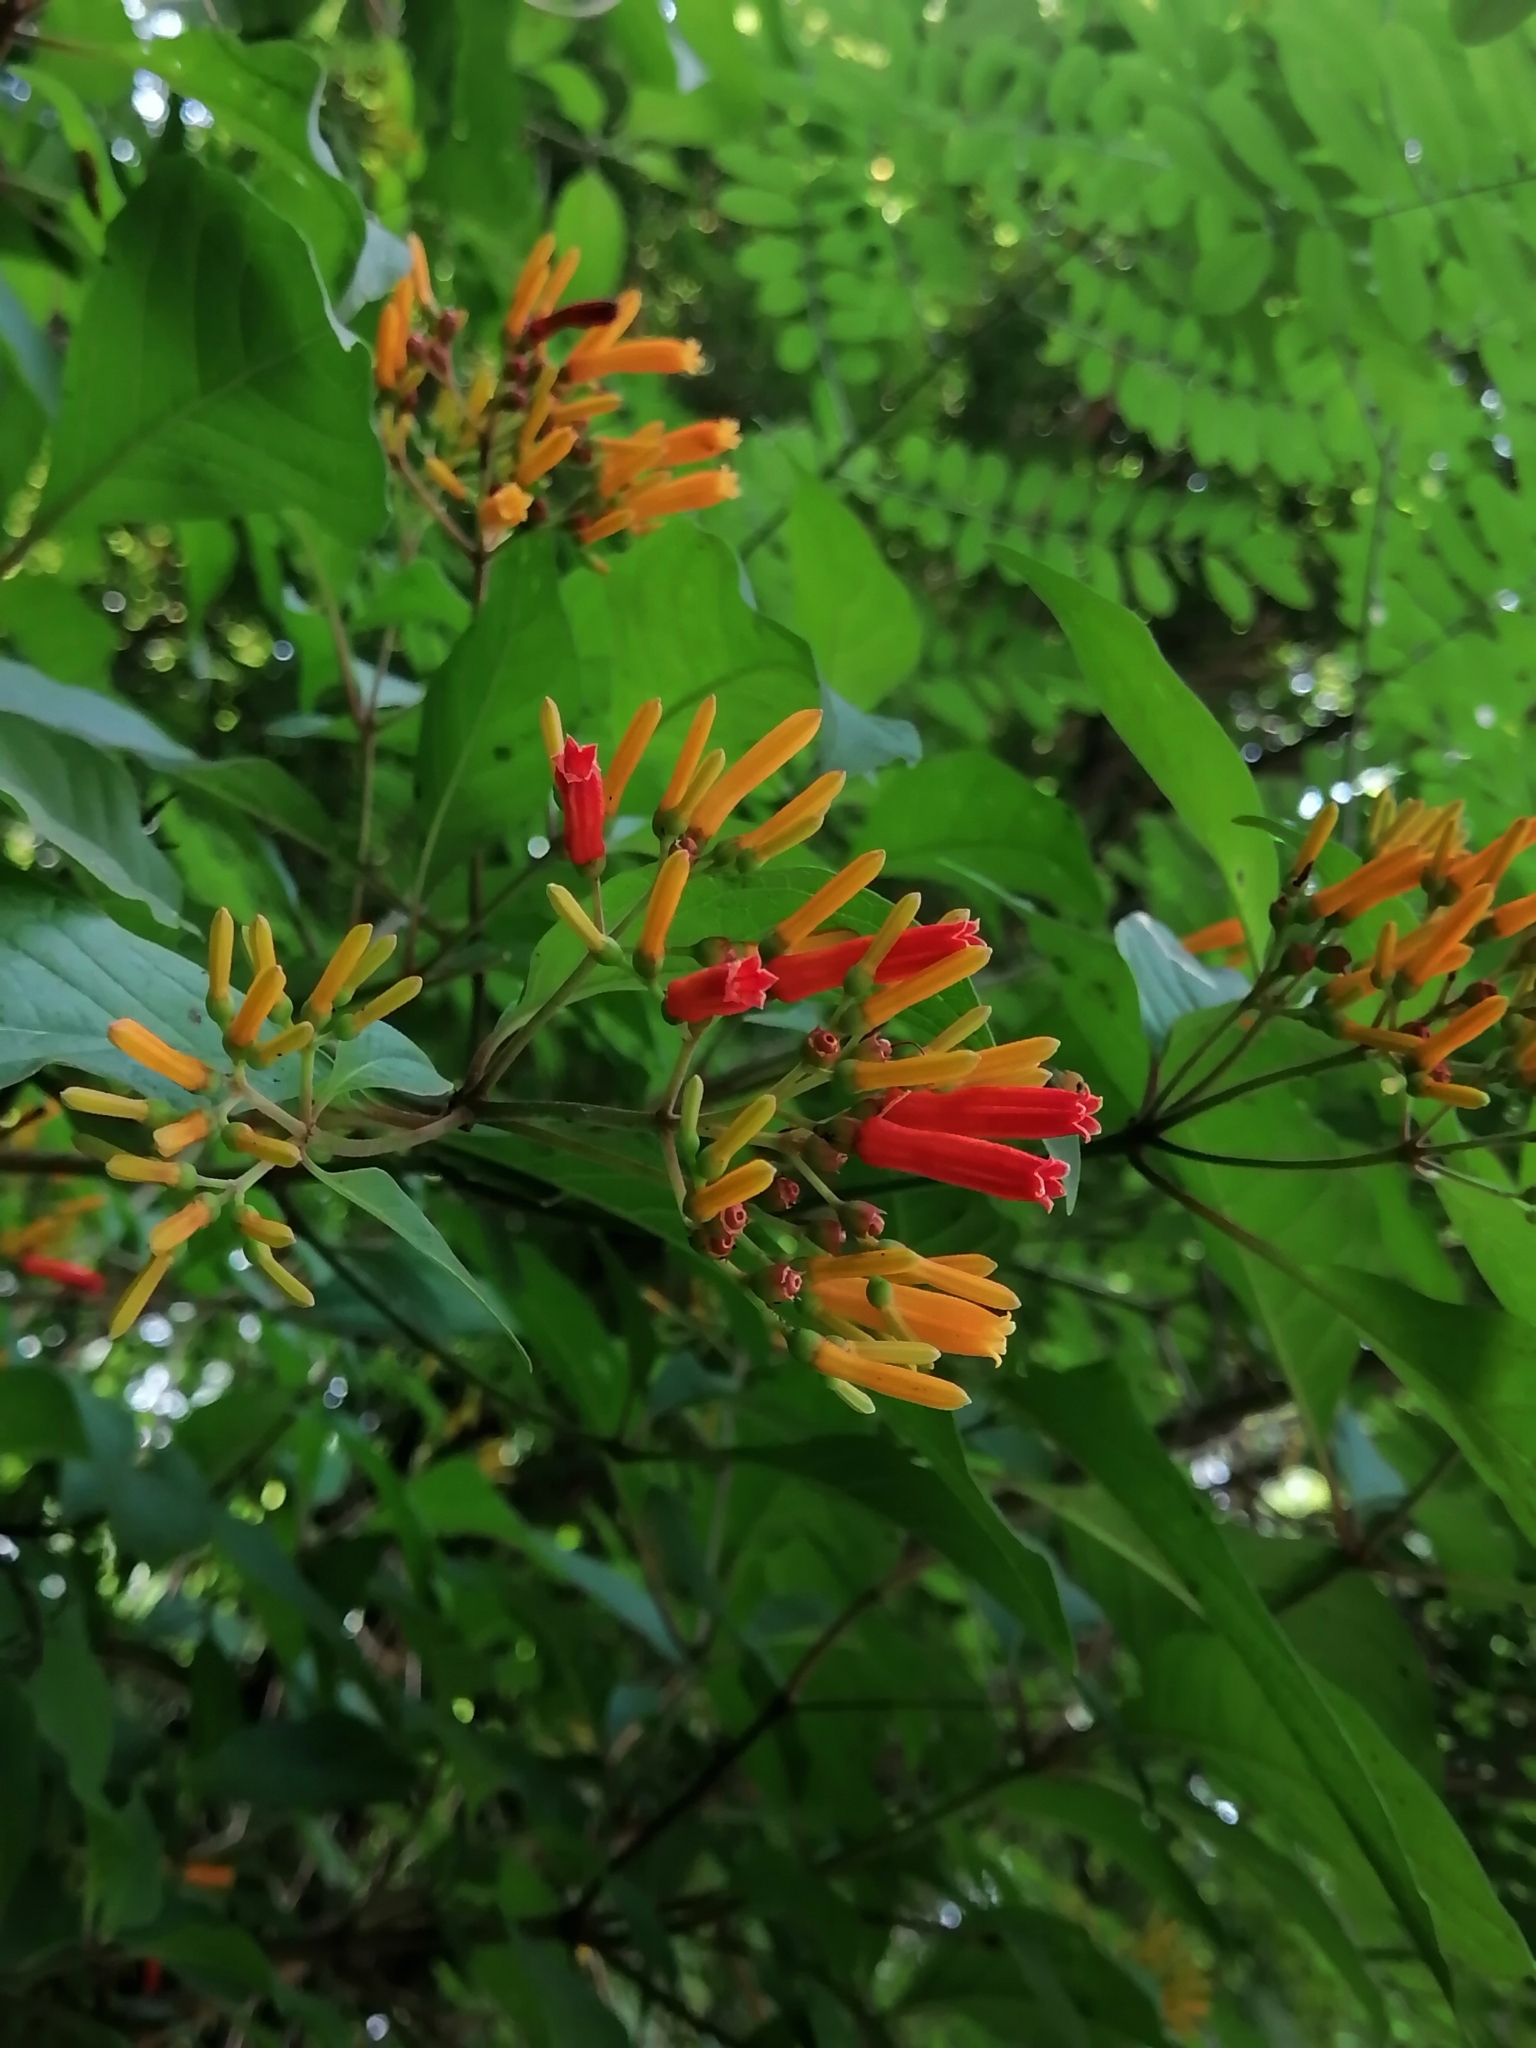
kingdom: Plantae
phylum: Tracheophyta
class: Magnoliopsida
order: Gentianales
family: Rubiaceae
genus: Hamelia
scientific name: Hamelia patens
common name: Redhead
